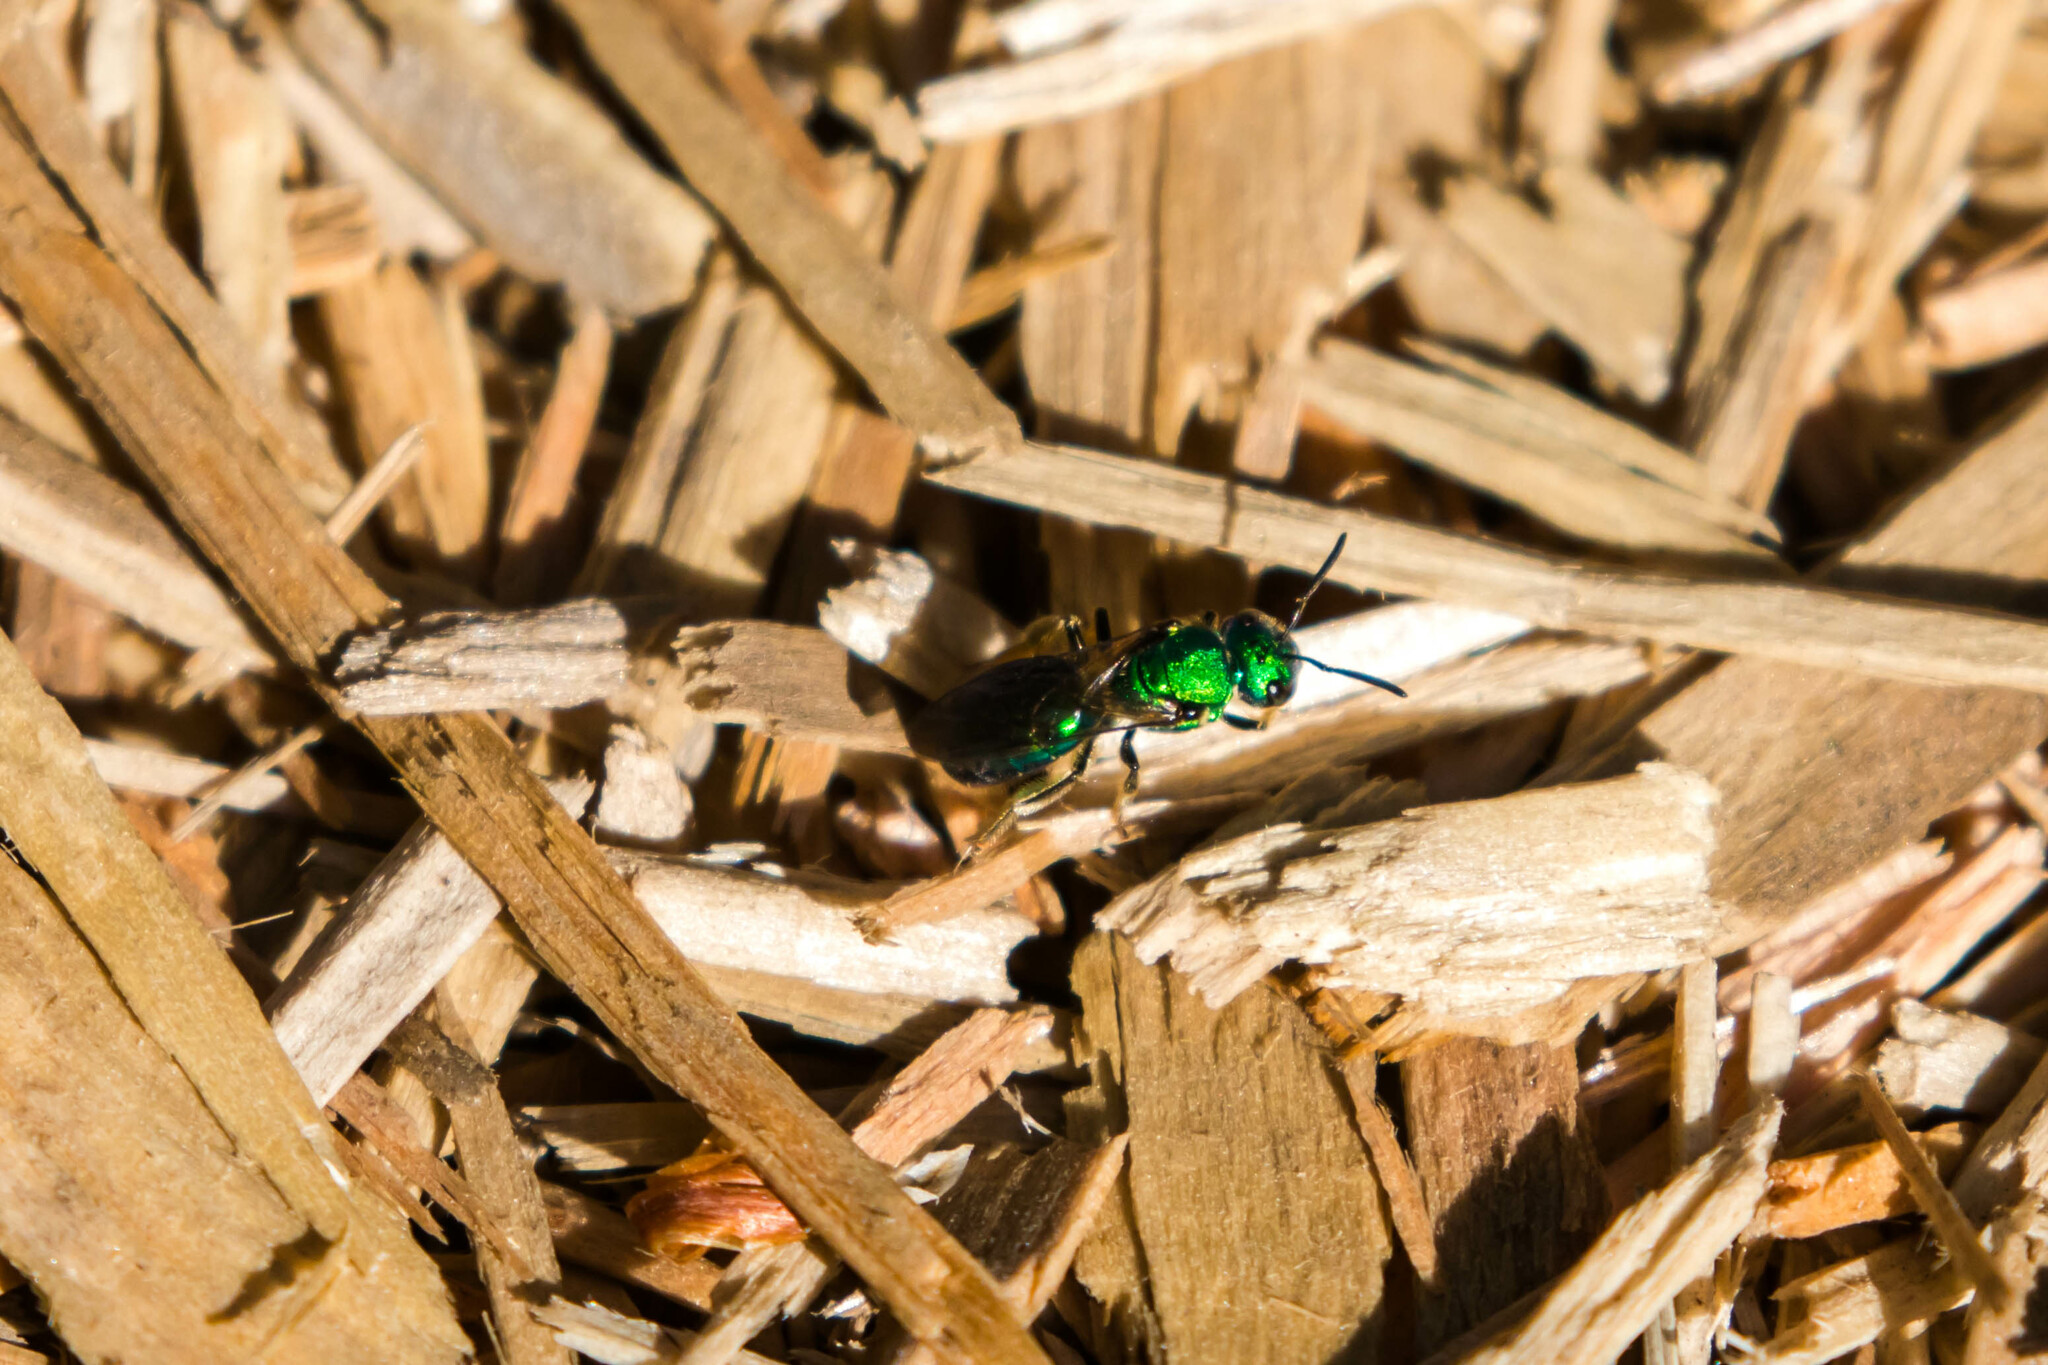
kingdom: Animalia
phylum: Arthropoda
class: Insecta
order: Hymenoptera
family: Halictidae
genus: Augochlora
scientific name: Augochlora pura
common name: Pure green sweat bee
